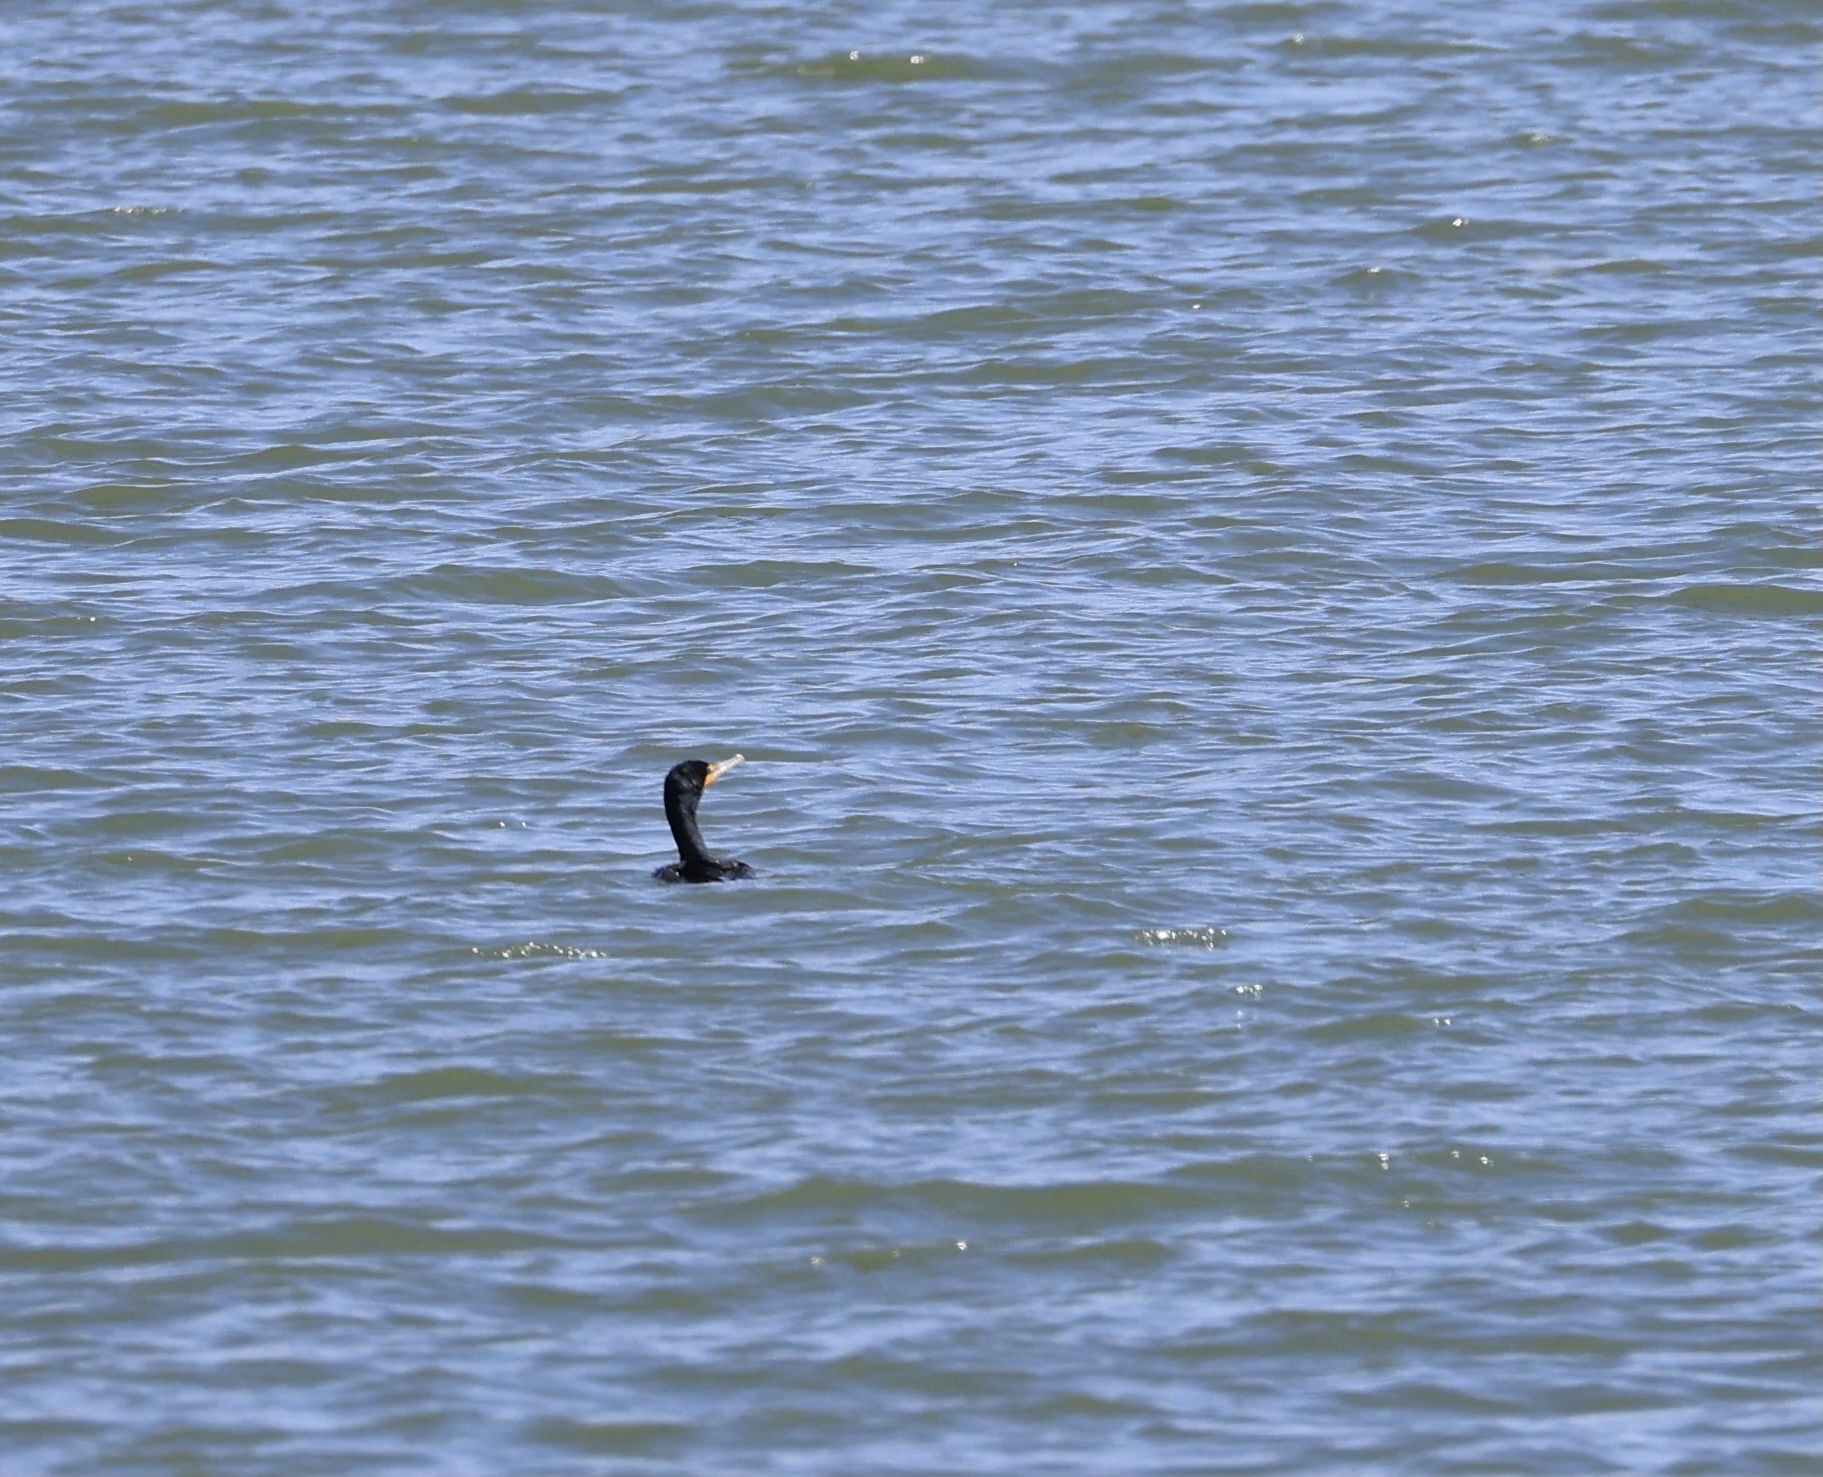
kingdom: Animalia
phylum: Chordata
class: Aves
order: Suliformes
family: Phalacrocoracidae
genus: Phalacrocorax
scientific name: Phalacrocorax auritus
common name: Double-crested cormorant
